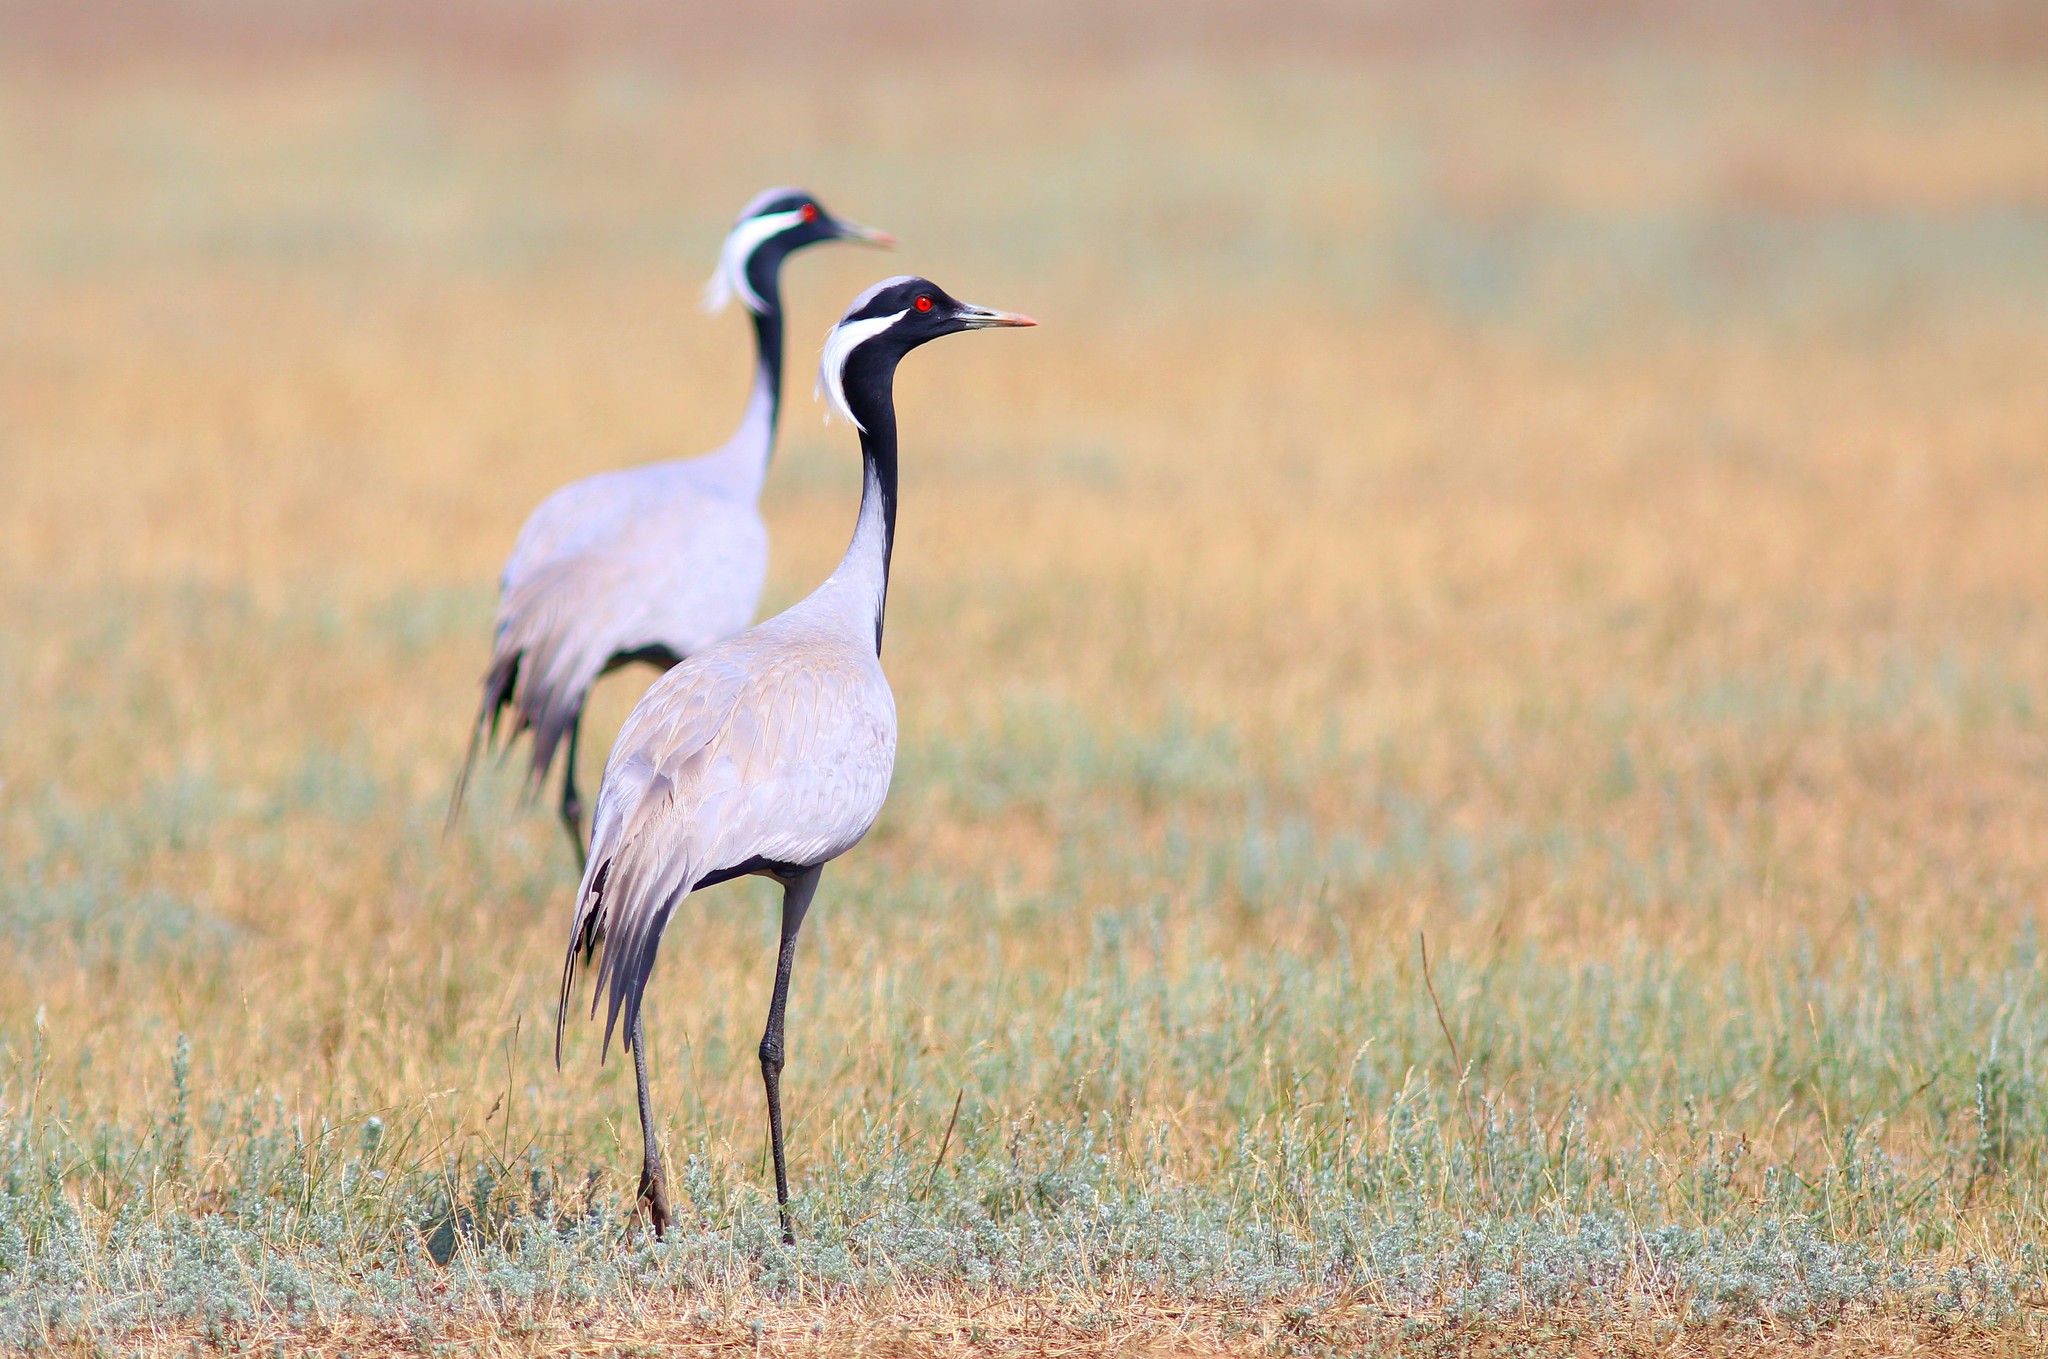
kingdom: Animalia
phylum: Chordata
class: Aves
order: Gruiformes
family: Gruidae
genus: Anthropoides
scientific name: Anthropoides virgo
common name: Demoiselle crane
